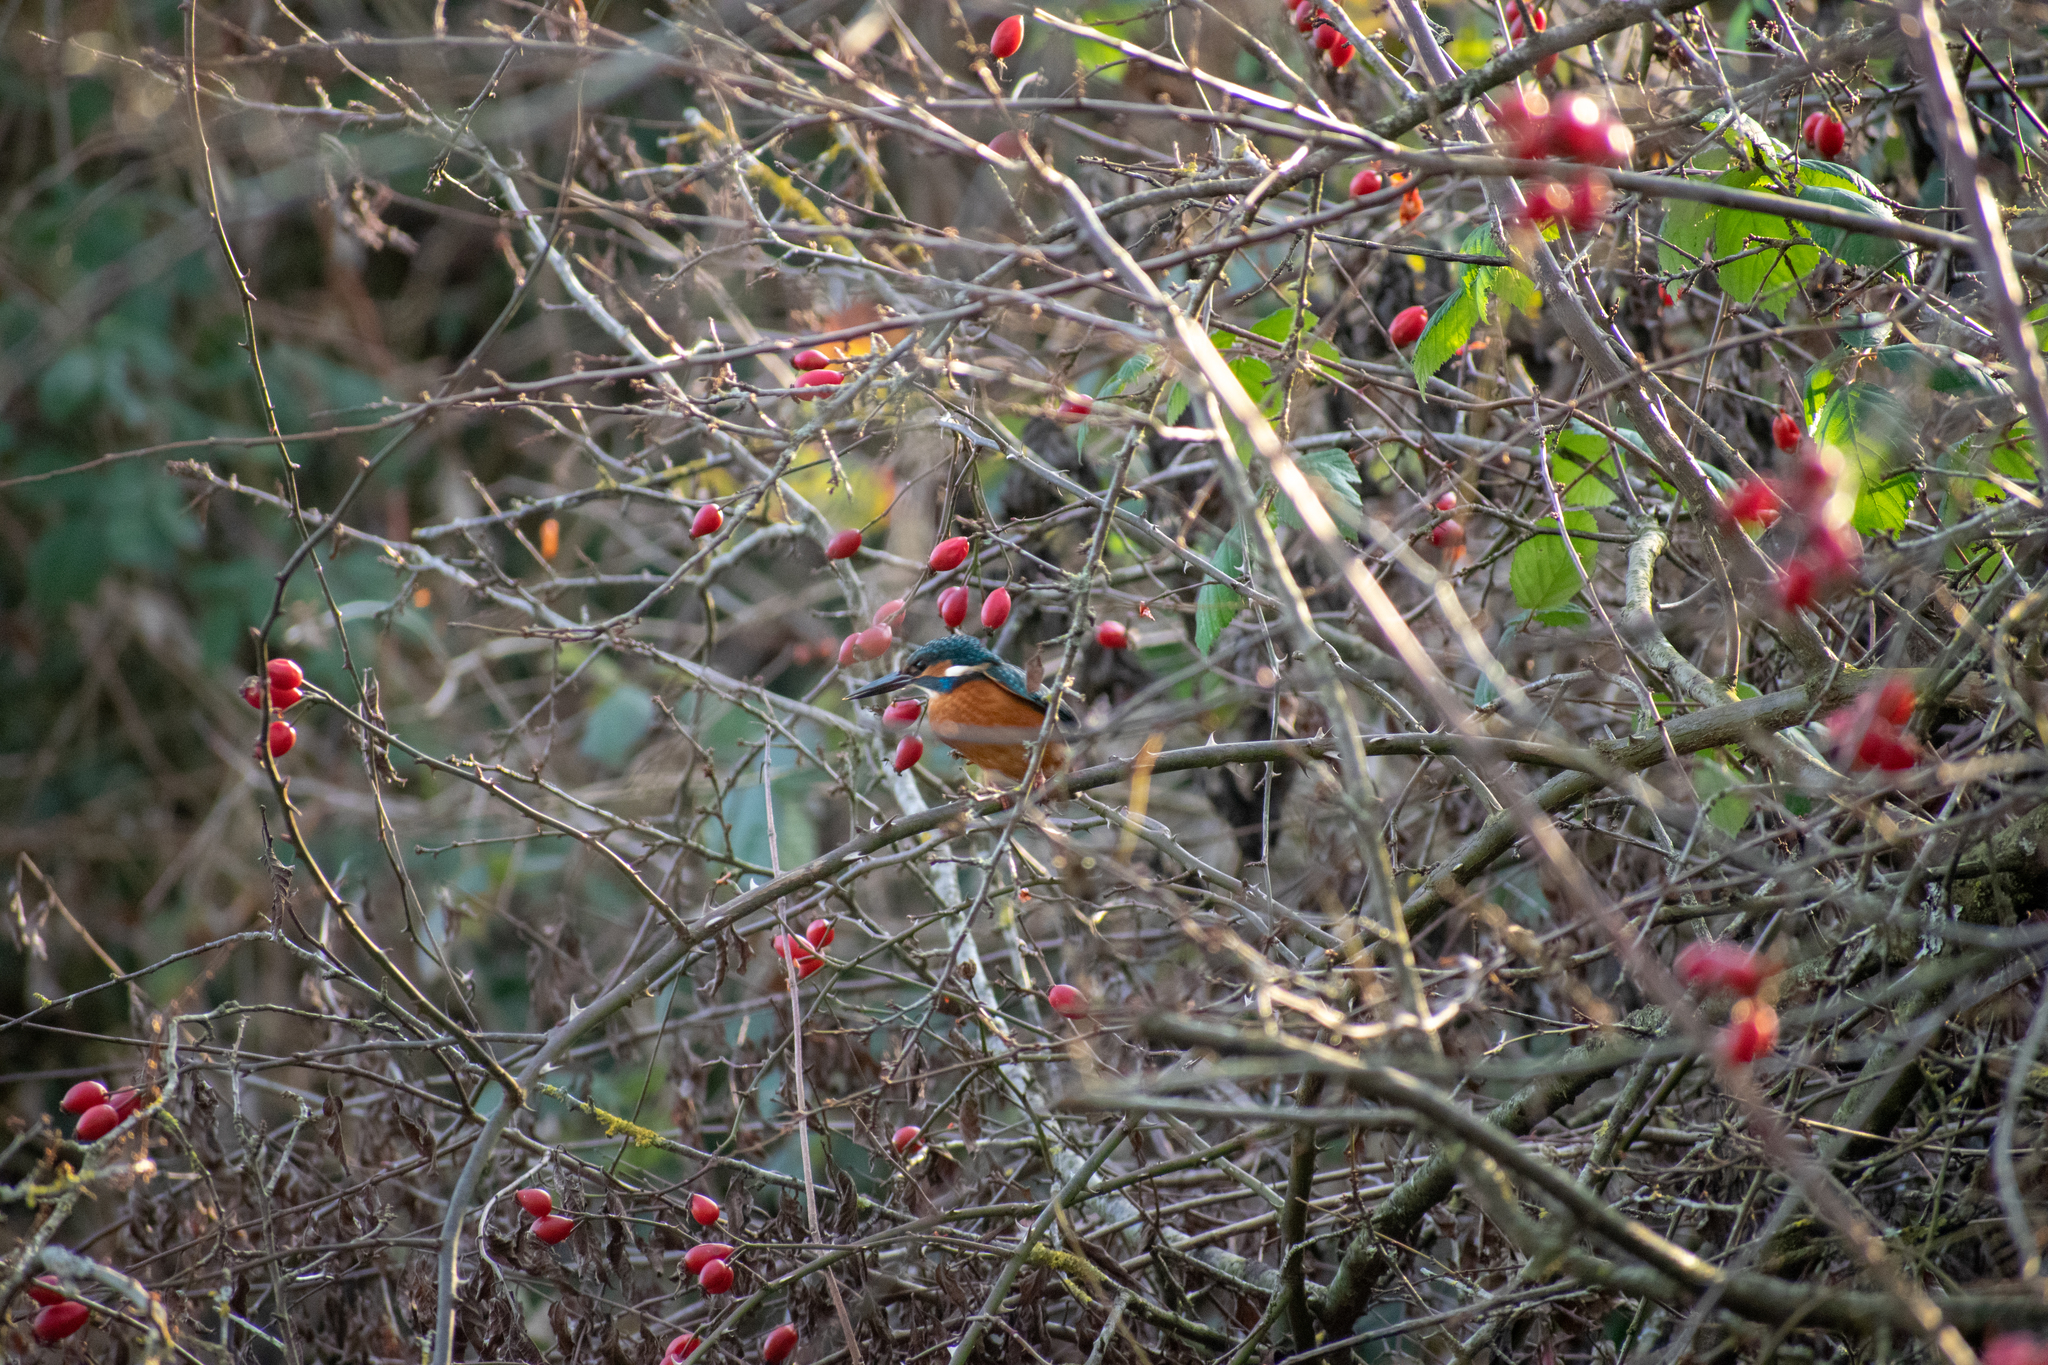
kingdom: Animalia
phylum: Chordata
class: Aves
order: Coraciiformes
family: Alcedinidae
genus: Alcedo
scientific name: Alcedo atthis
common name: Common kingfisher
